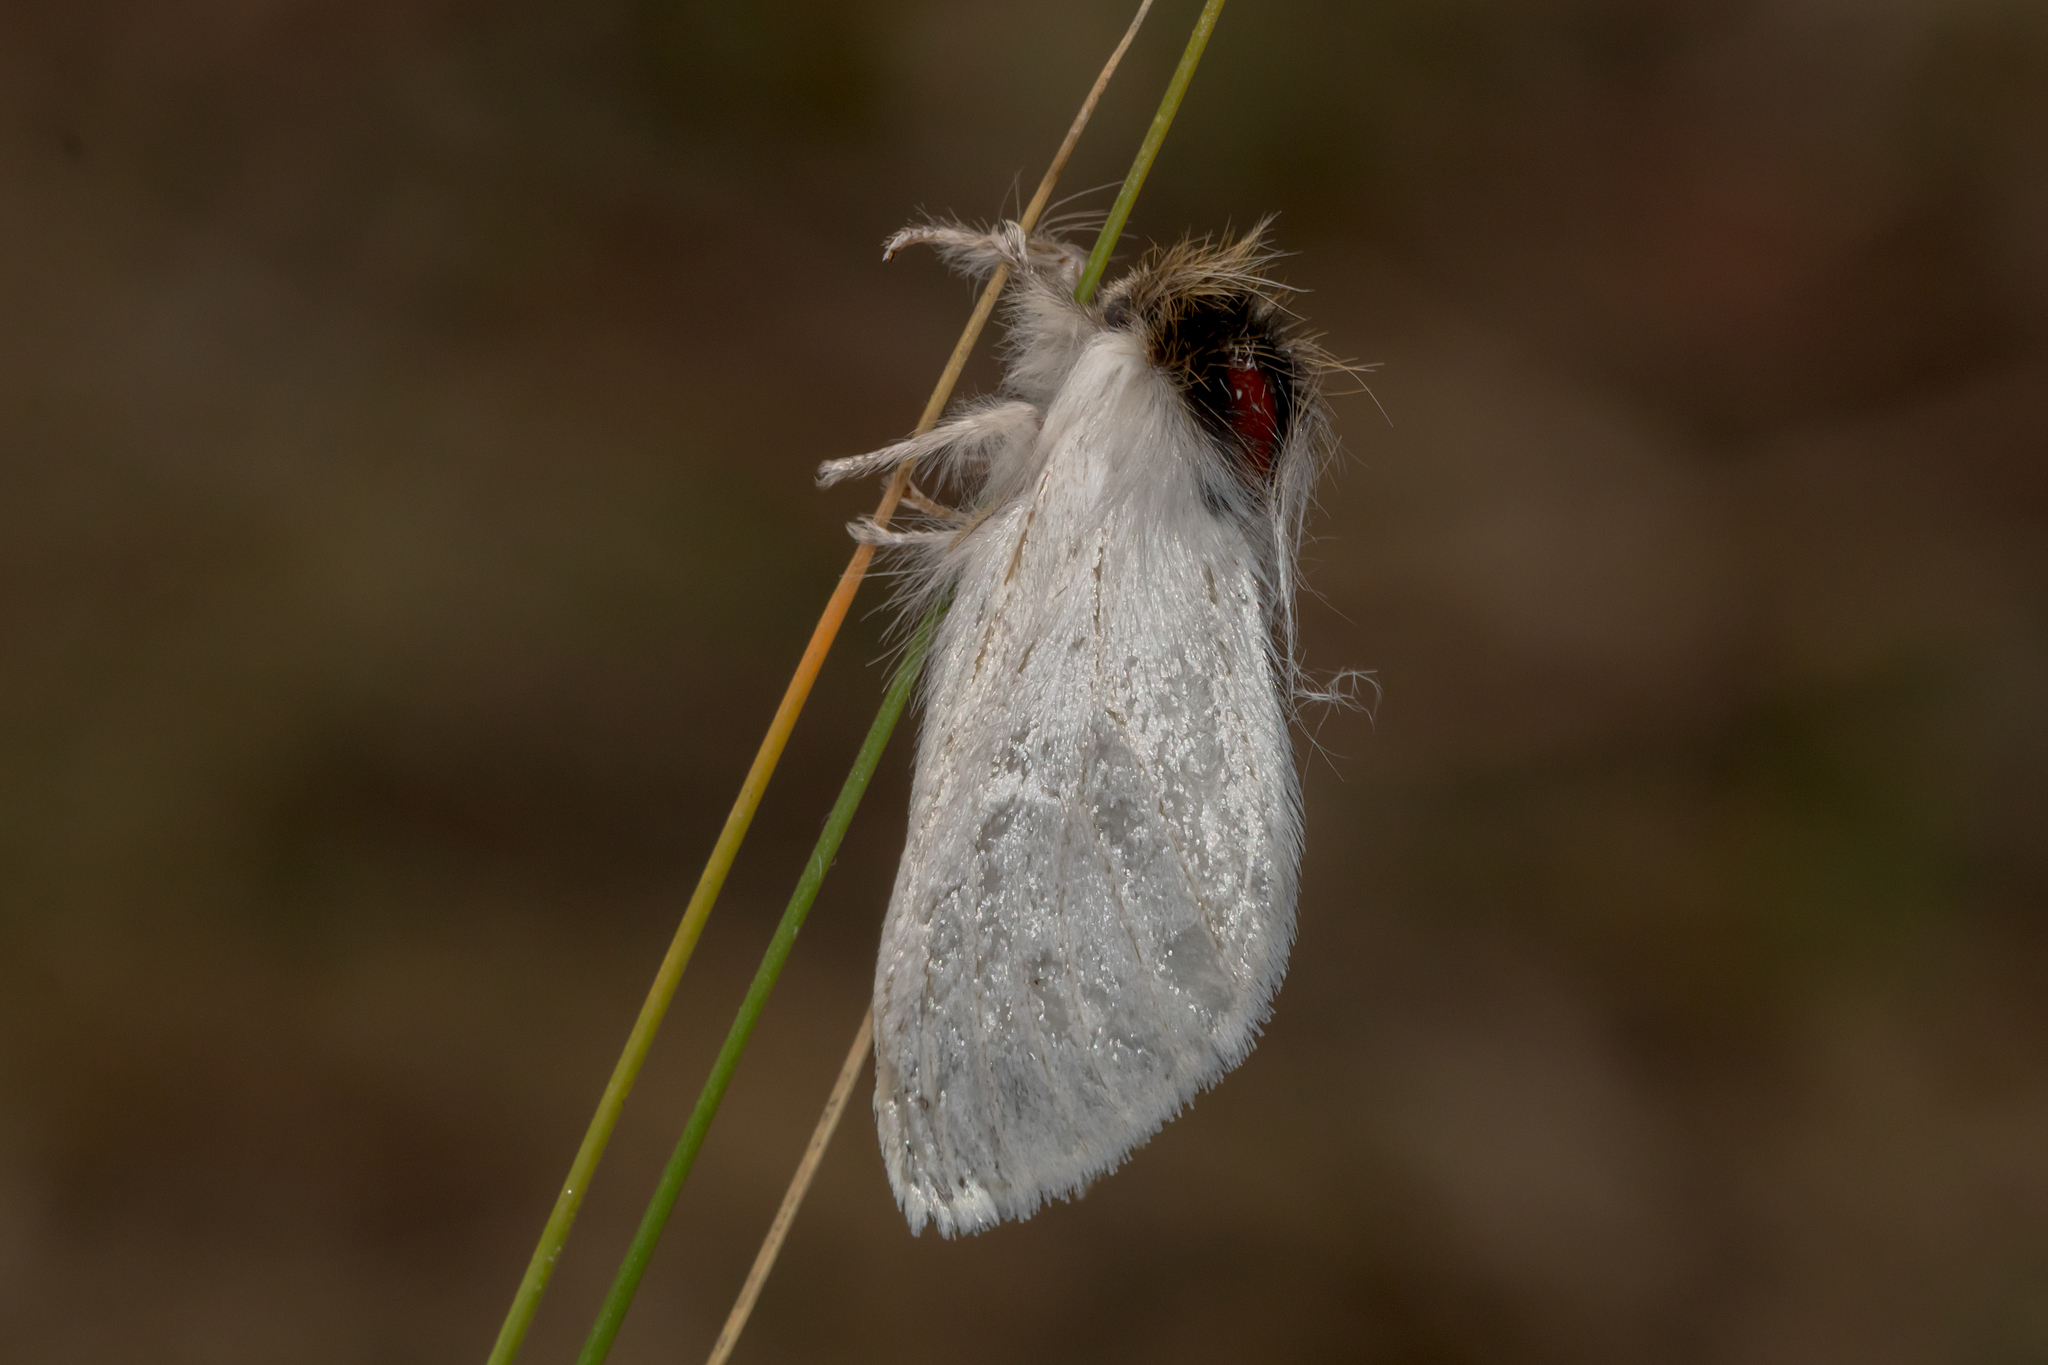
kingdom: Animalia
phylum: Arthropoda
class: Insecta
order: Lepidoptera
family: Notodontidae
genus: Trichiocercus
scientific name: Trichiocercus sparshalli
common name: Long-tailed satin
